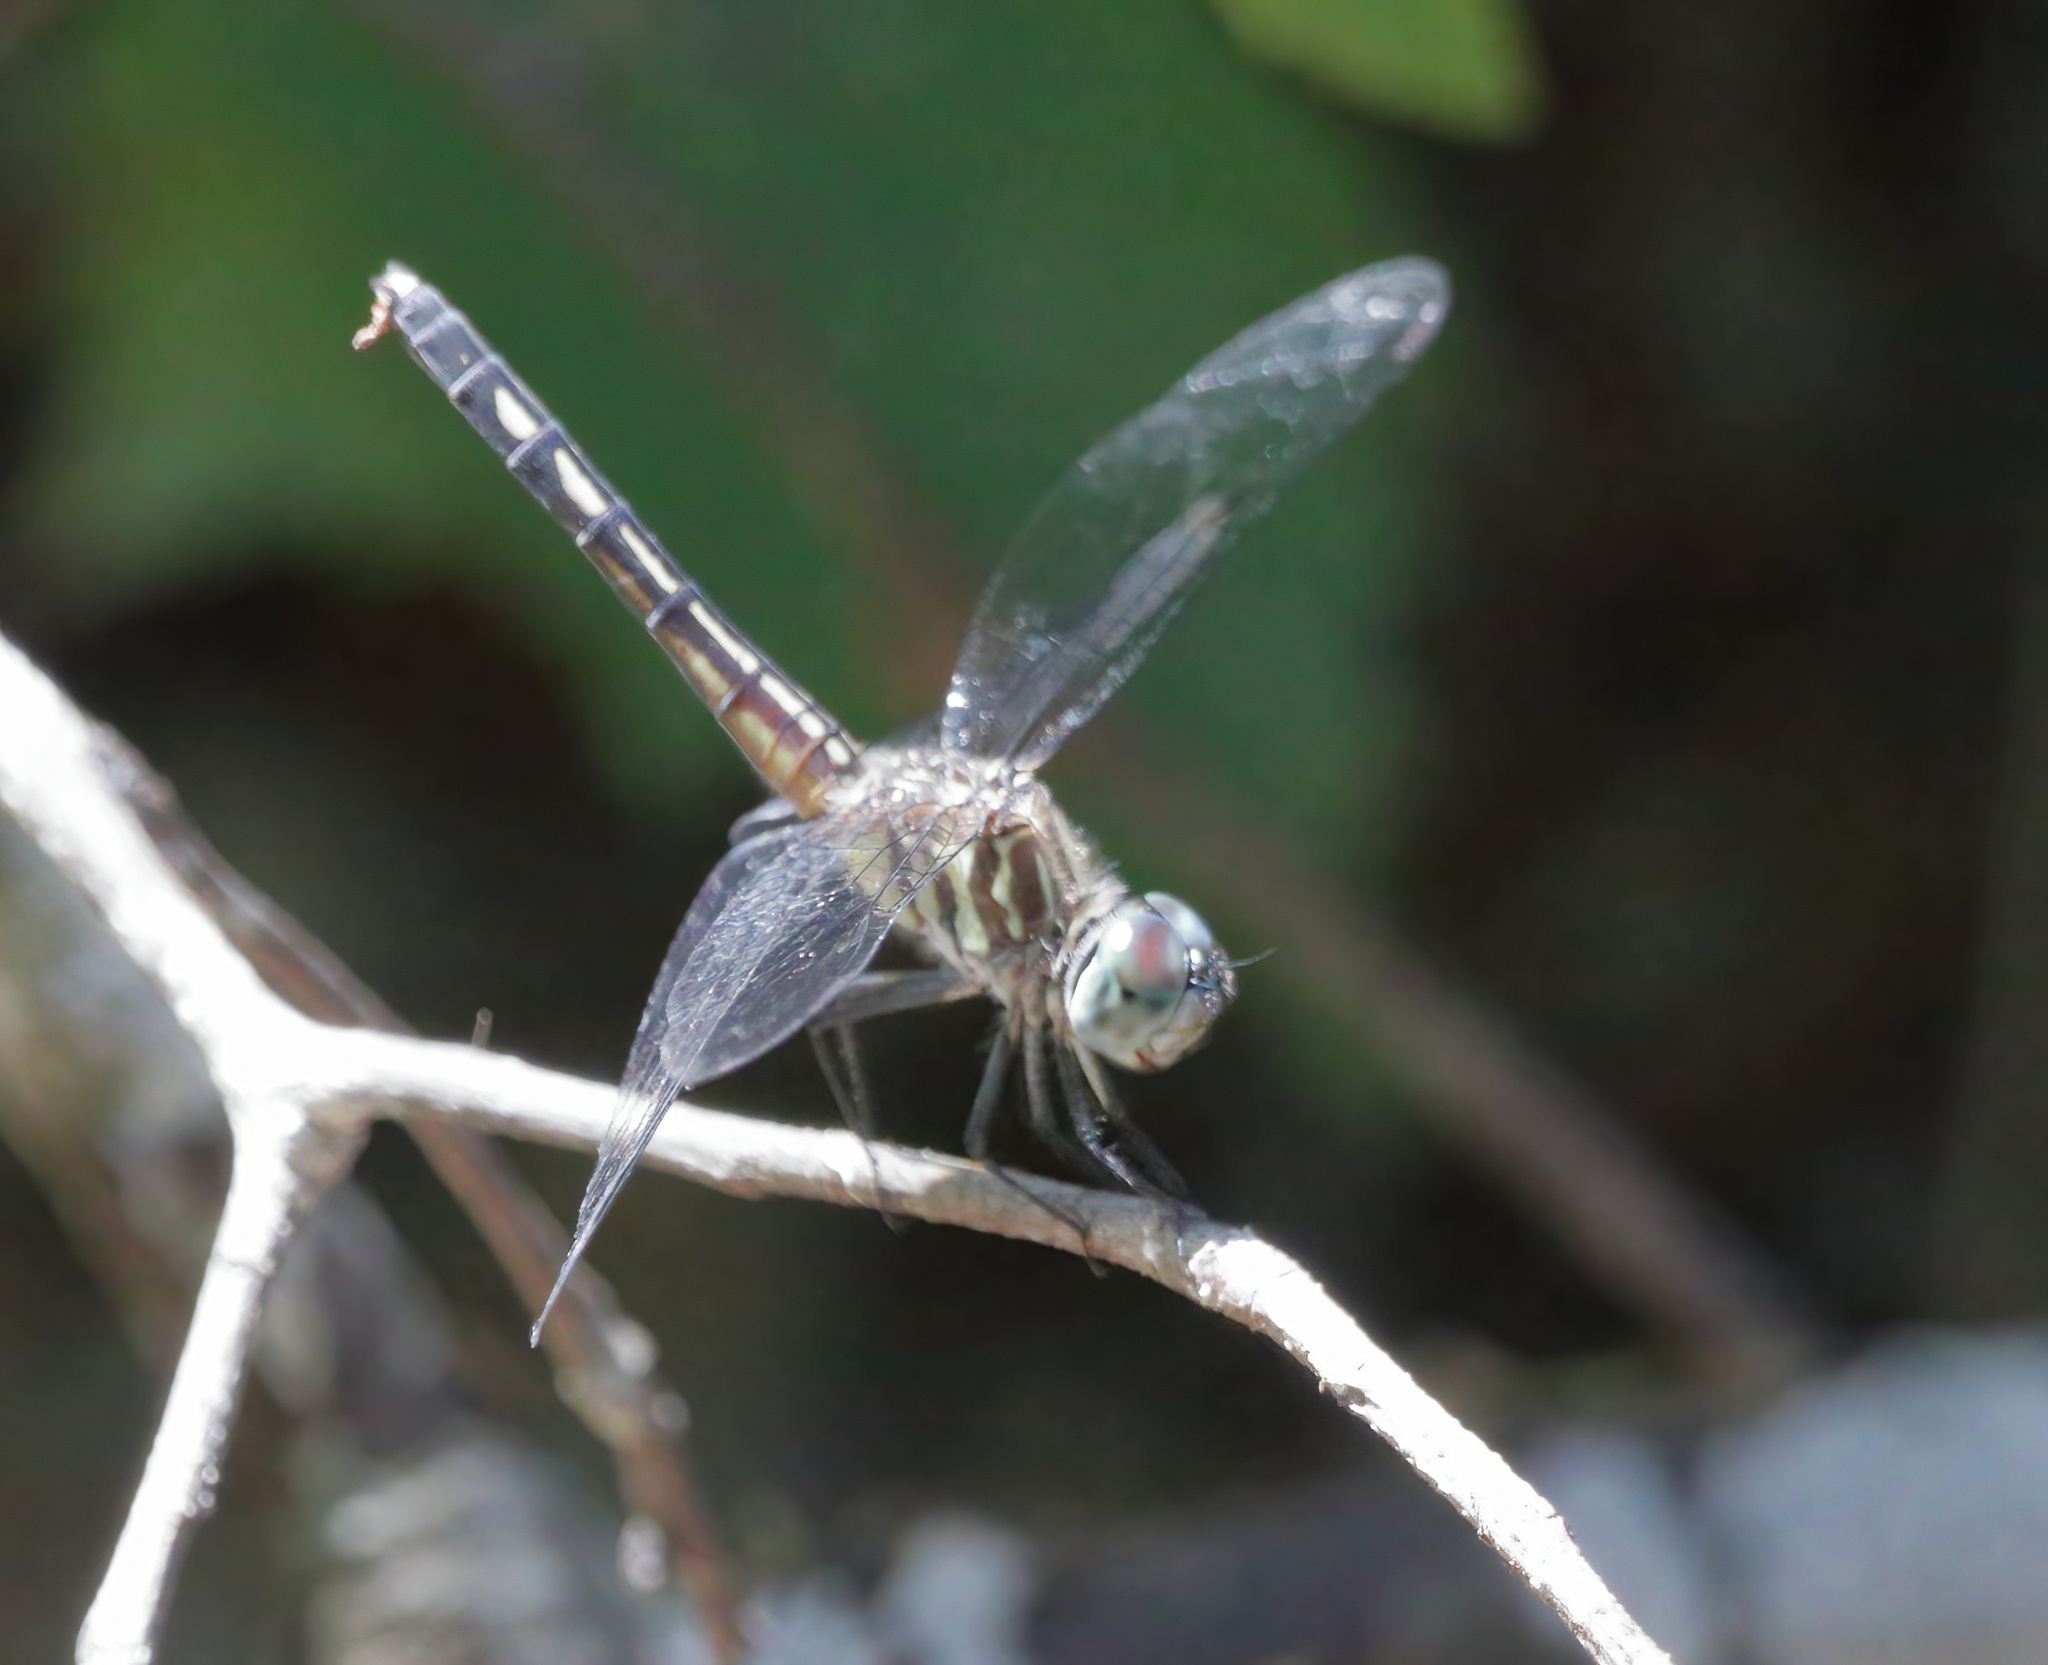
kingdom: Animalia
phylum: Arthropoda
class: Insecta
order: Odonata
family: Libellulidae
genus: Pachydiplax
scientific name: Pachydiplax longipennis
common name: Blue dasher
